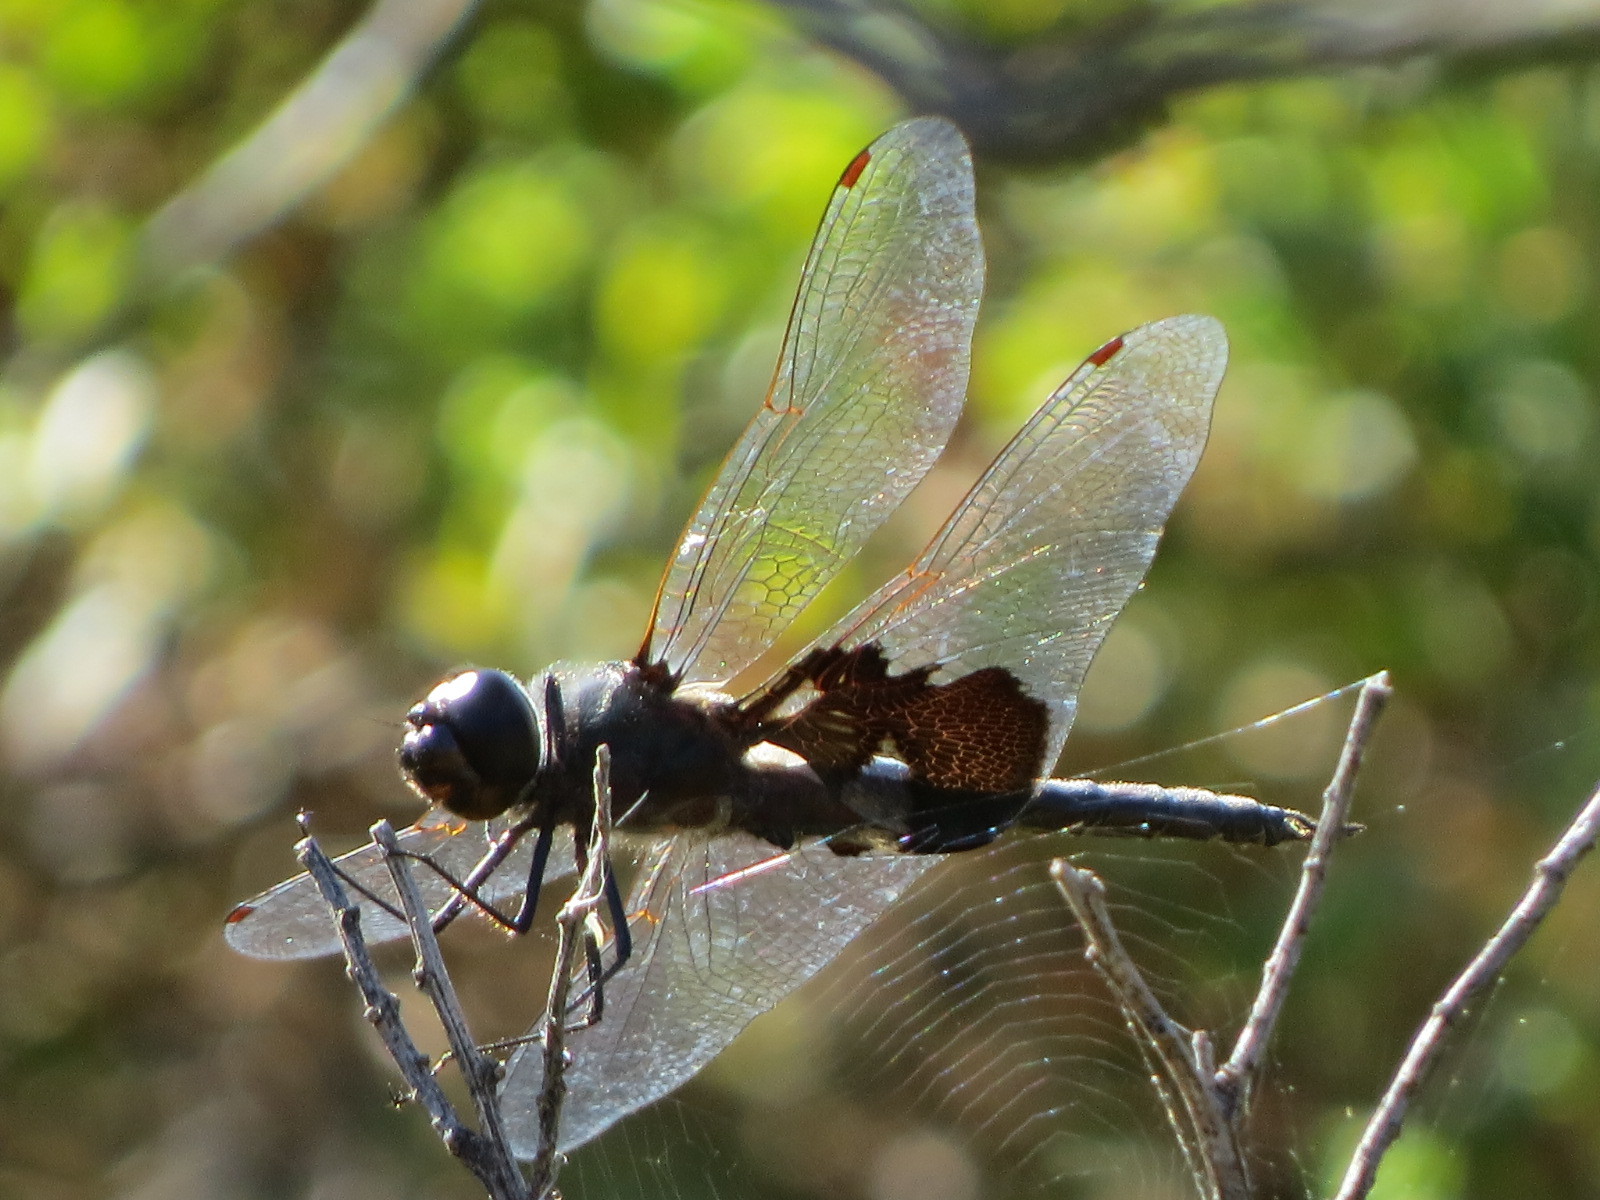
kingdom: Animalia
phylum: Arthropoda
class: Insecta
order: Odonata
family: Libellulidae
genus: Tramea
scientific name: Tramea lacerata
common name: Black saddlebags
